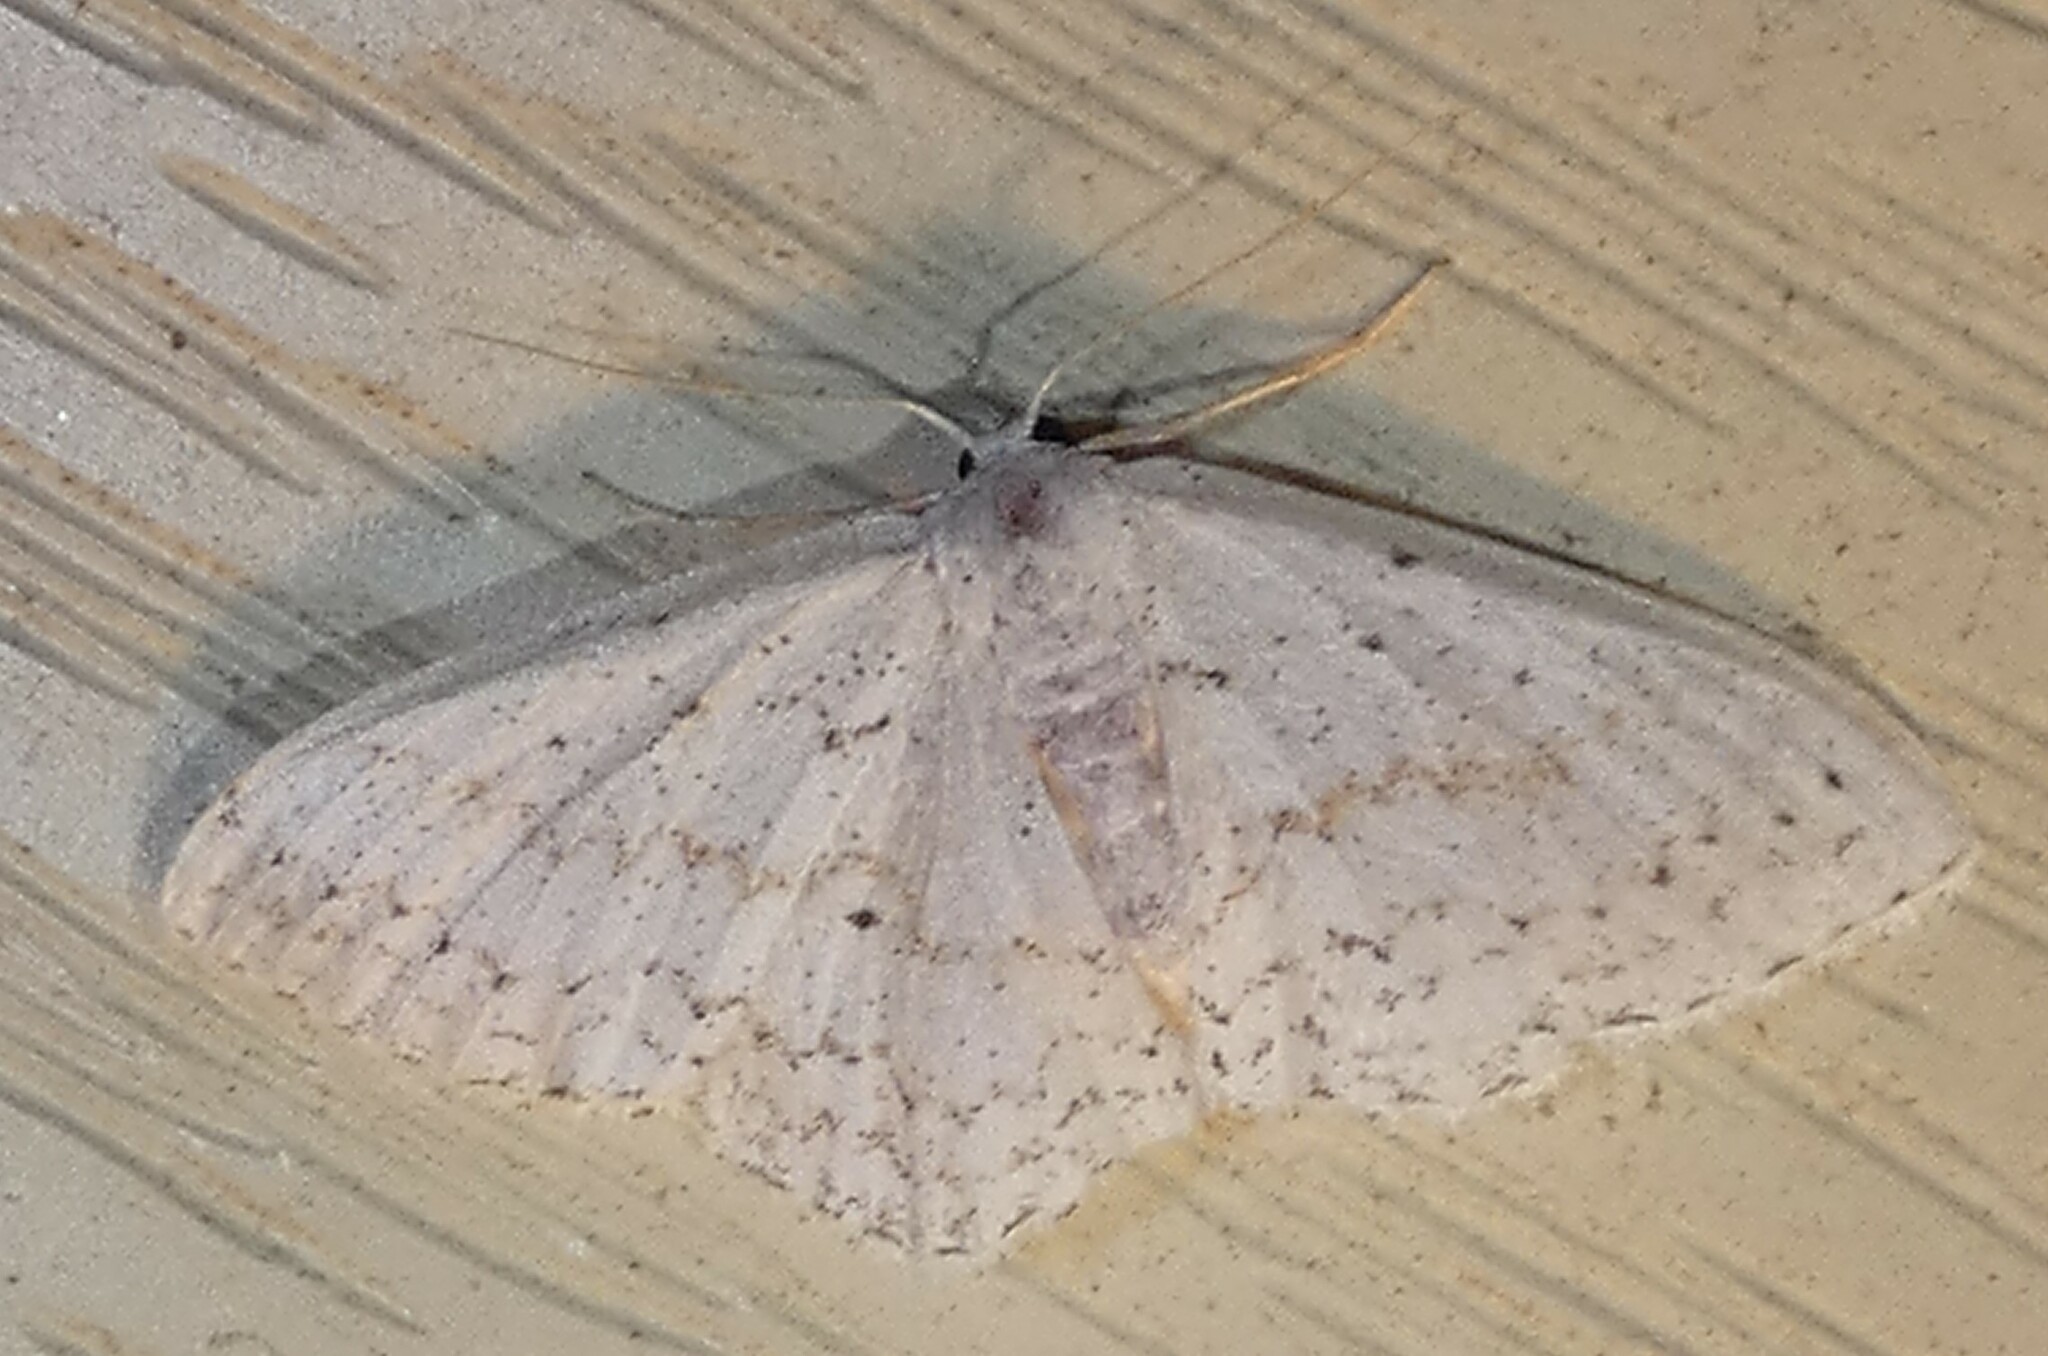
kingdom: Animalia
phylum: Arthropoda
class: Insecta
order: Lepidoptera
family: Geometridae
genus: Idaea
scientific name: Idaea tacturata
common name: Dot-lined wave
